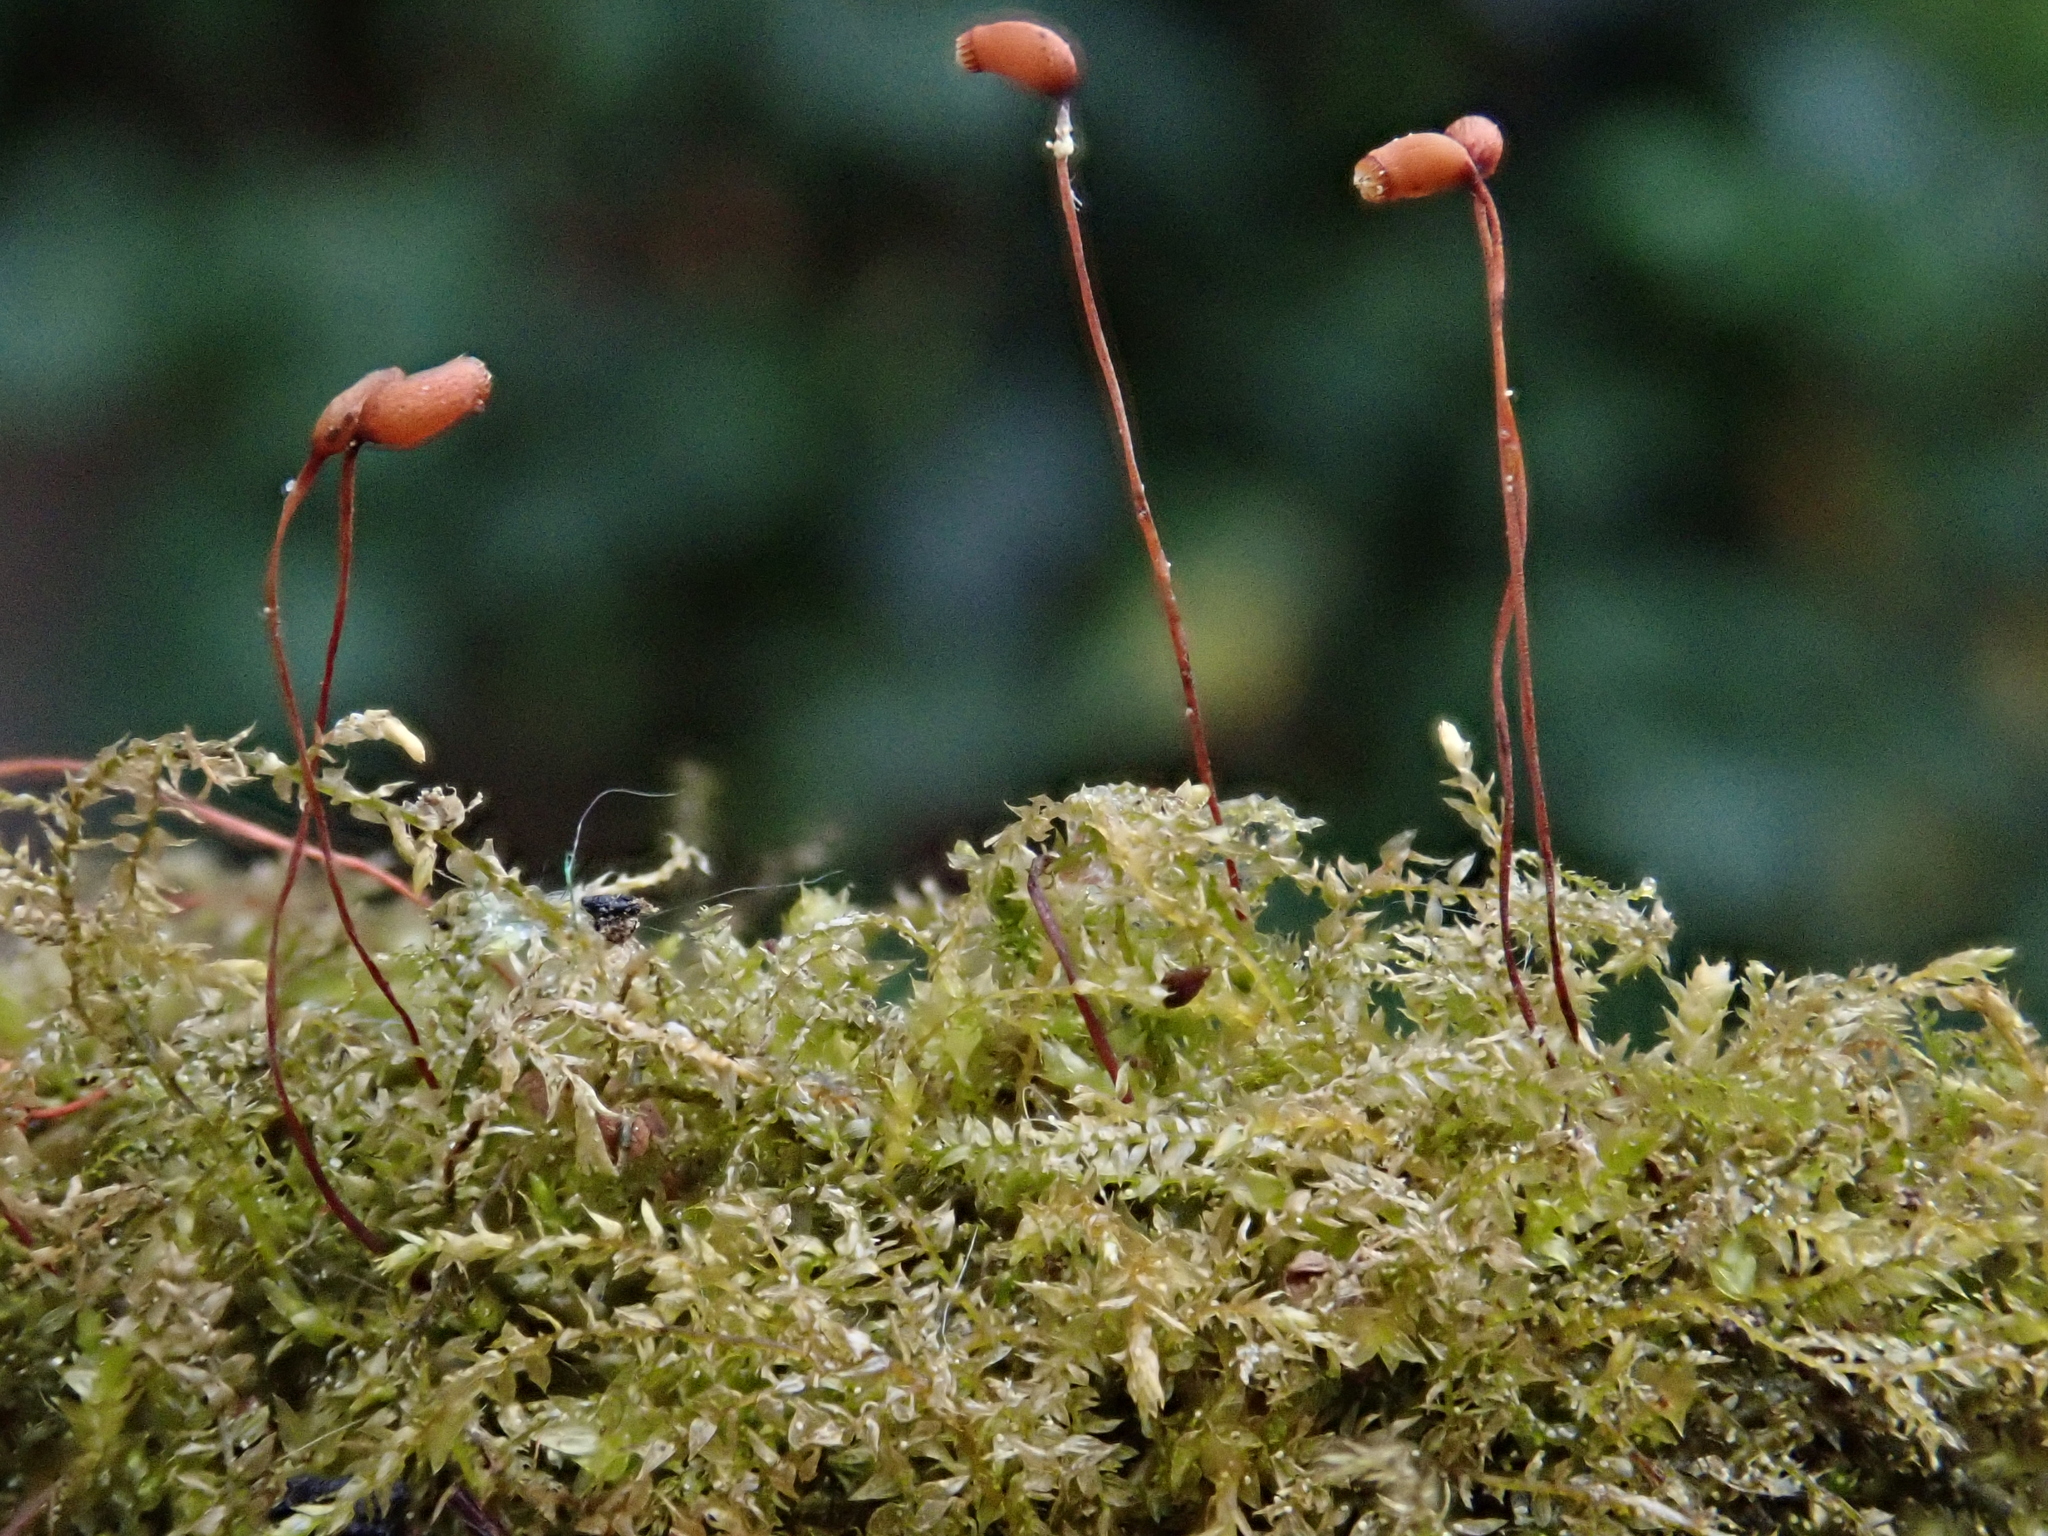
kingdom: Plantae
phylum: Bryophyta
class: Bryopsida
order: Hypnales
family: Brachytheciaceae
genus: Oxyrrhynchium
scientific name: Oxyrrhynchium hians
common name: Spreading beaked moss
